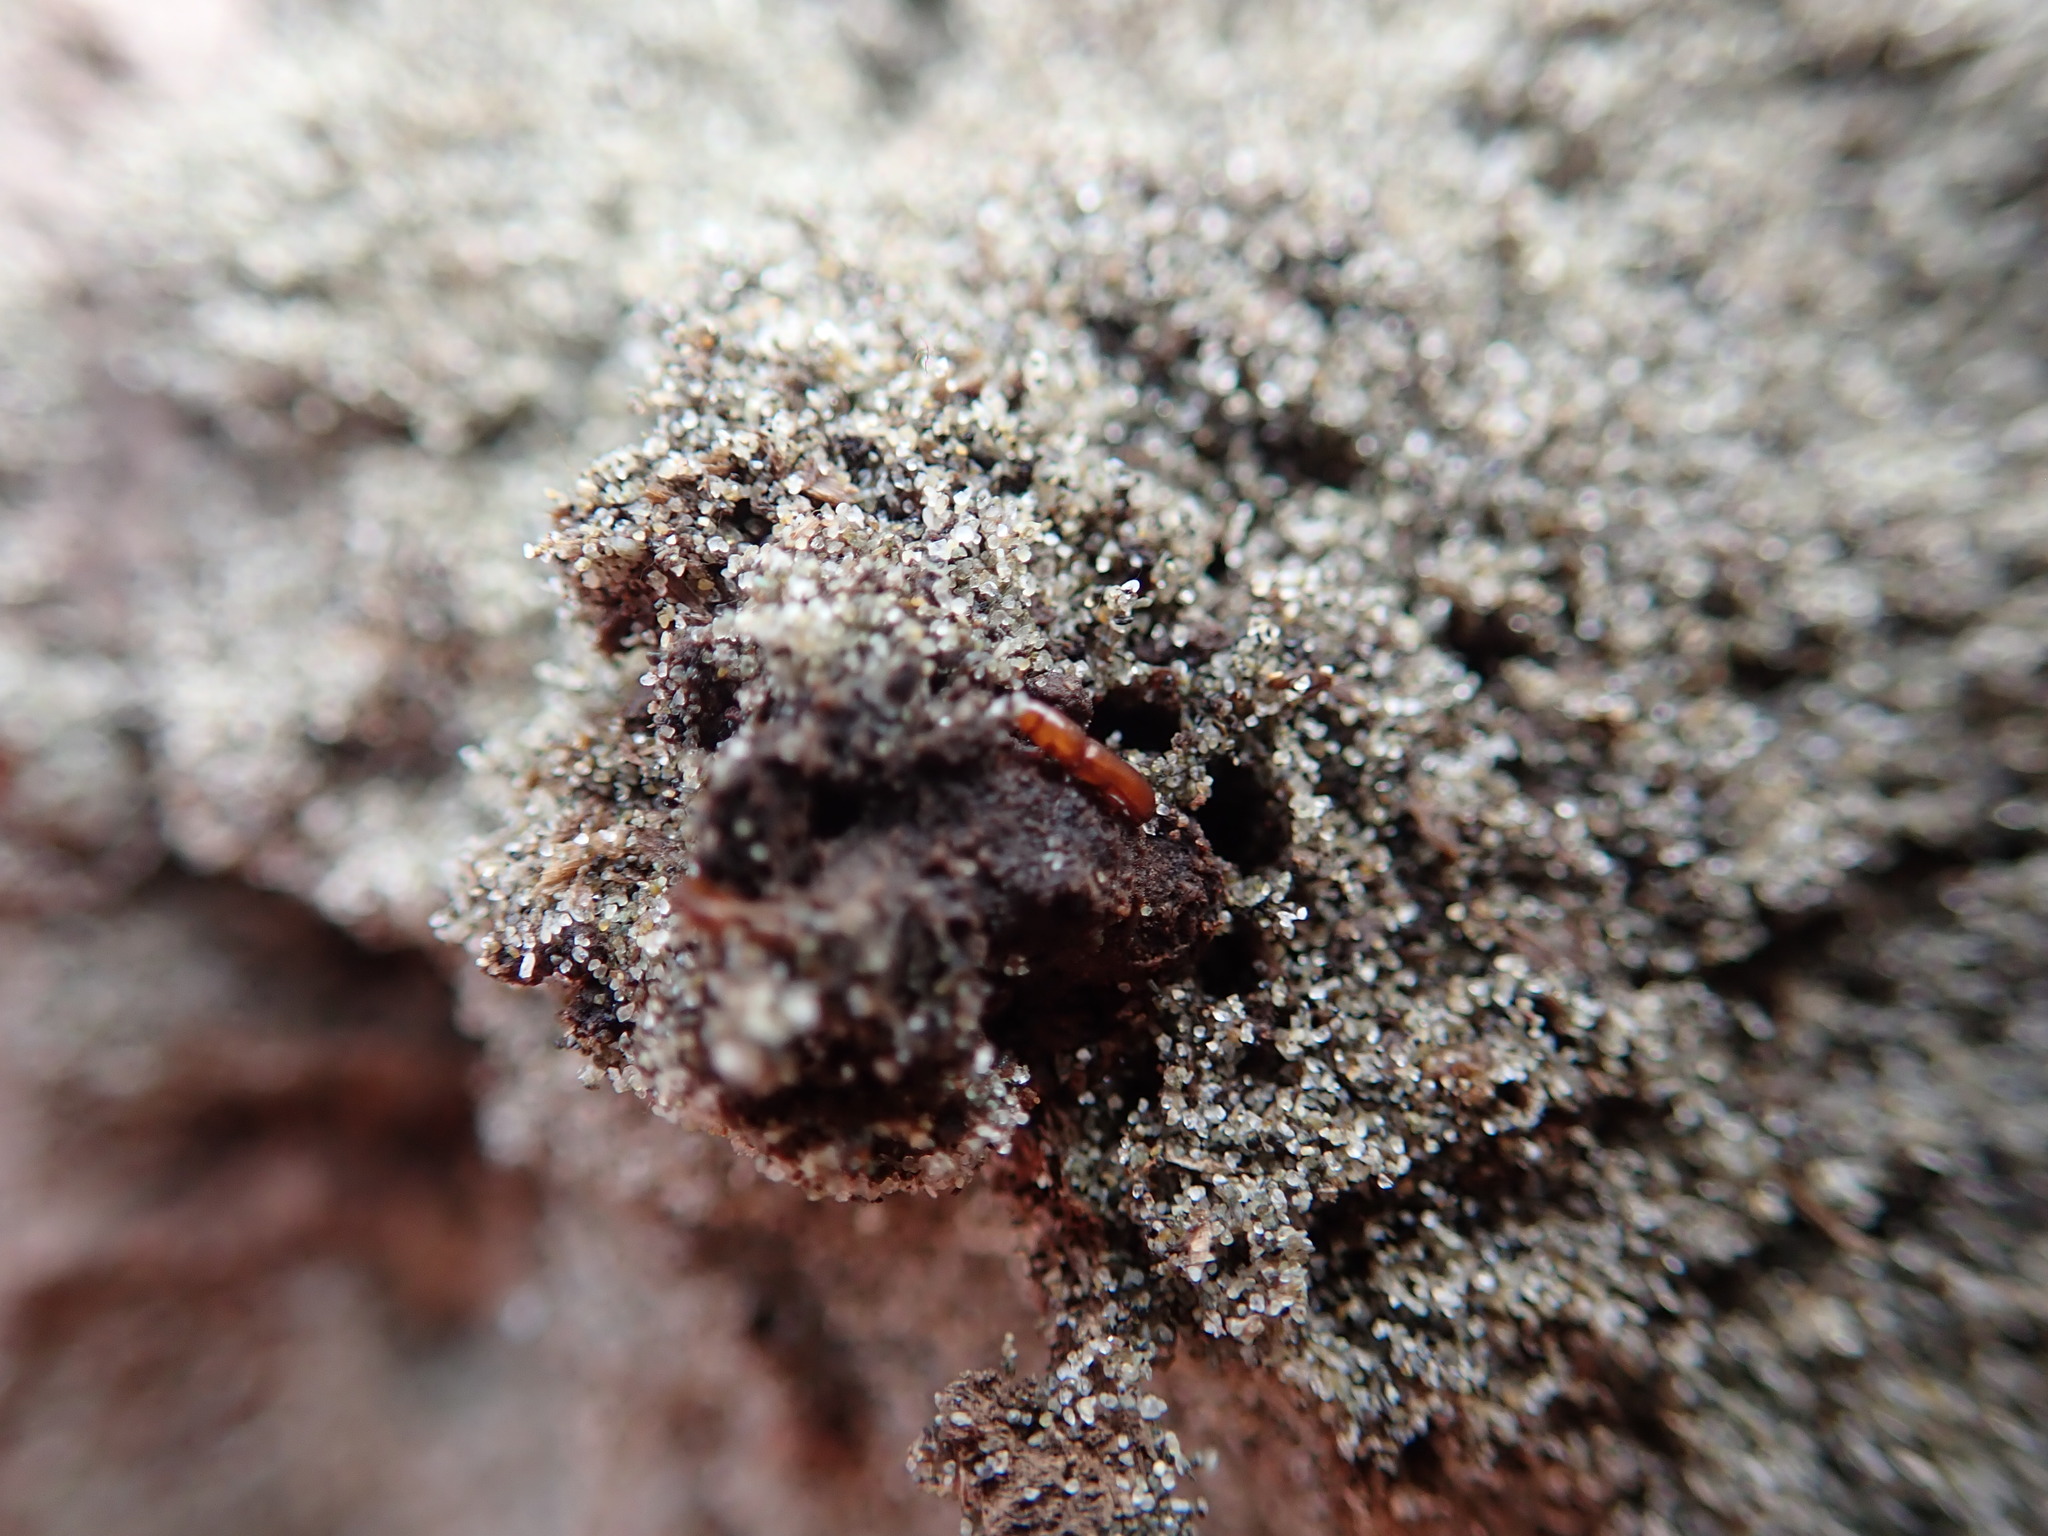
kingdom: Animalia
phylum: Arthropoda
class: Insecta
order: Coleoptera
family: Curculionidae
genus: Eutornus
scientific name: Eutornus littoralis
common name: Driftwood weevil
